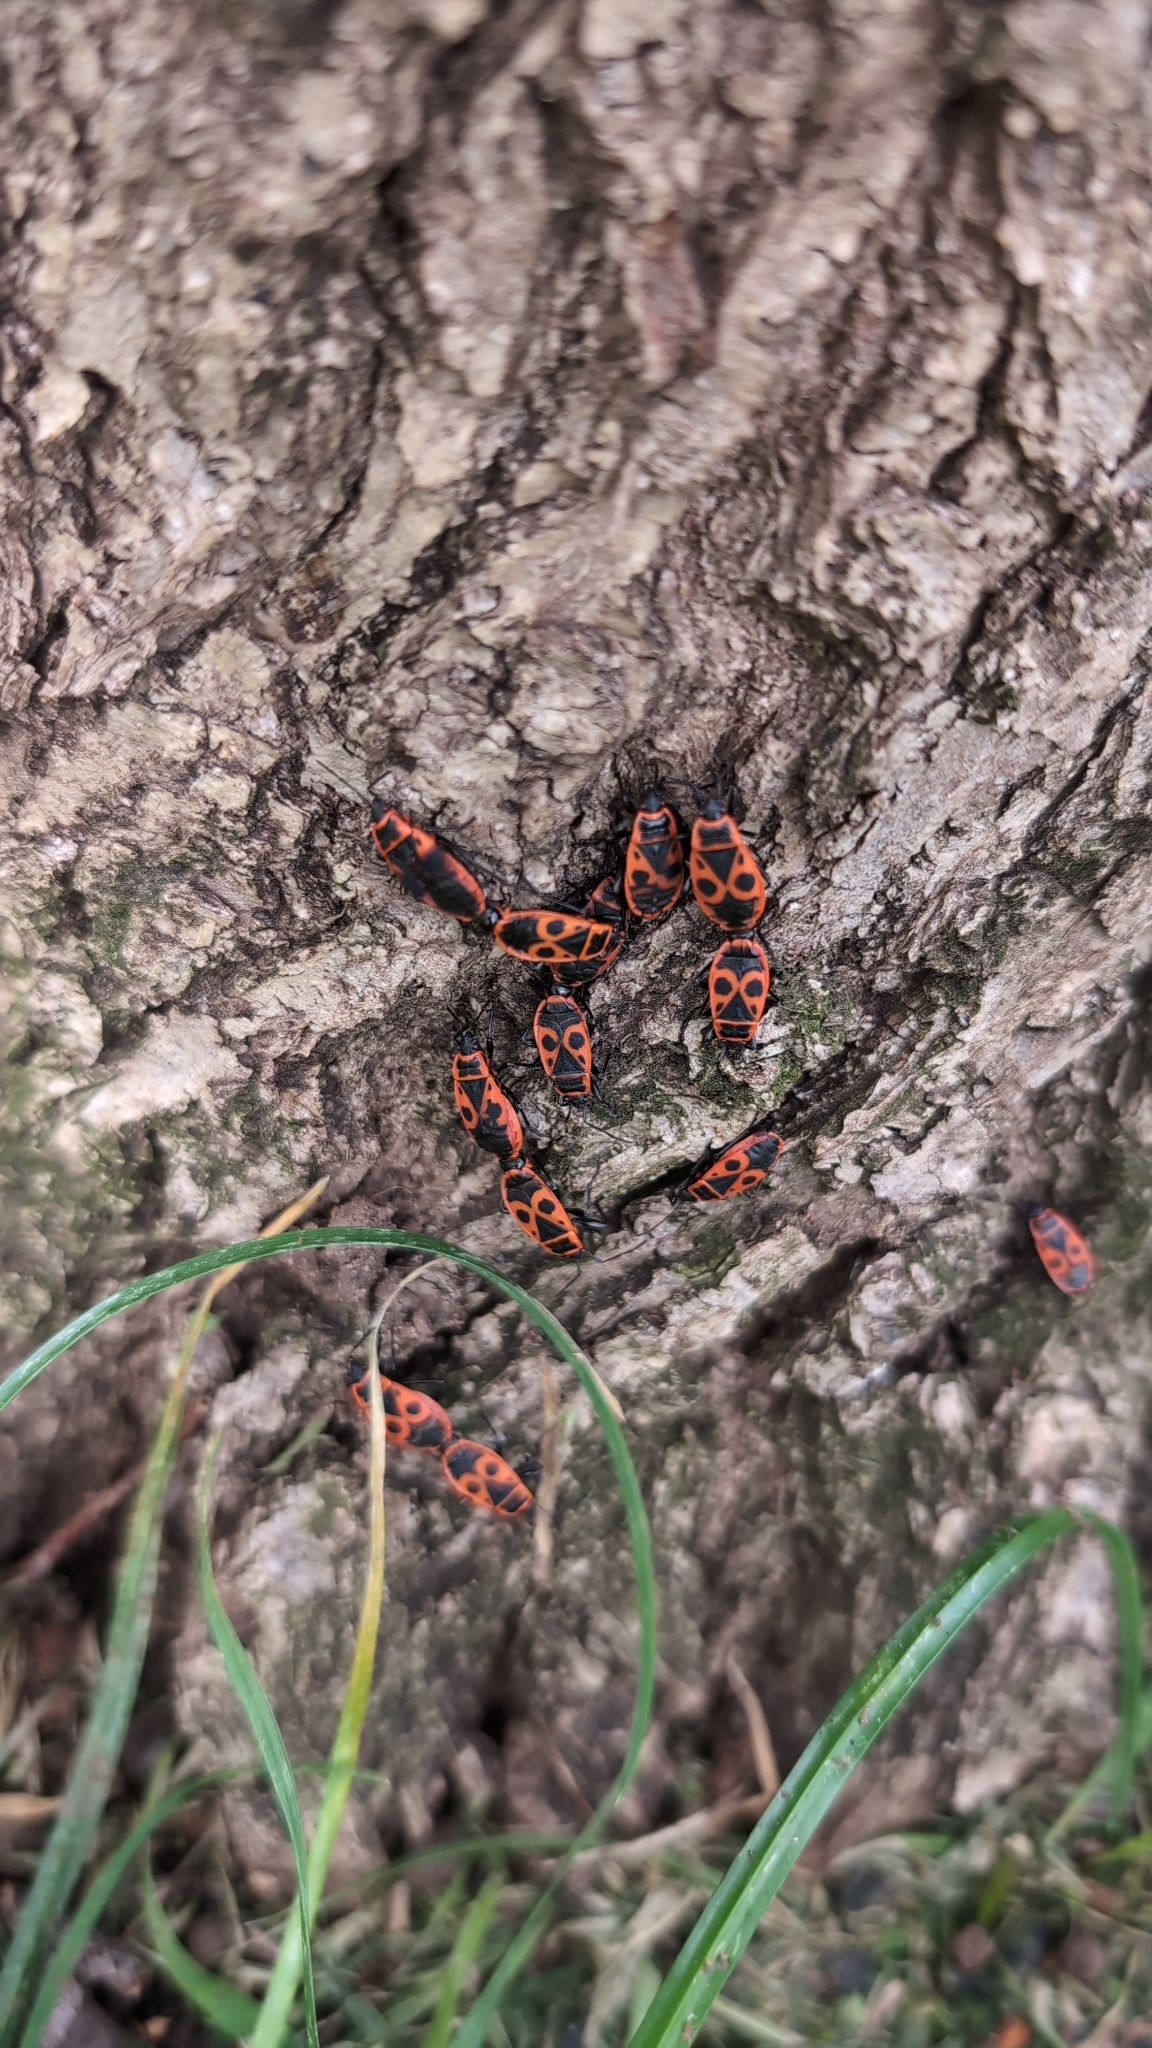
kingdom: Animalia
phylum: Arthropoda
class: Insecta
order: Hemiptera
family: Pyrrhocoridae
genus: Pyrrhocoris
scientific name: Pyrrhocoris apterus
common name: Firebug
